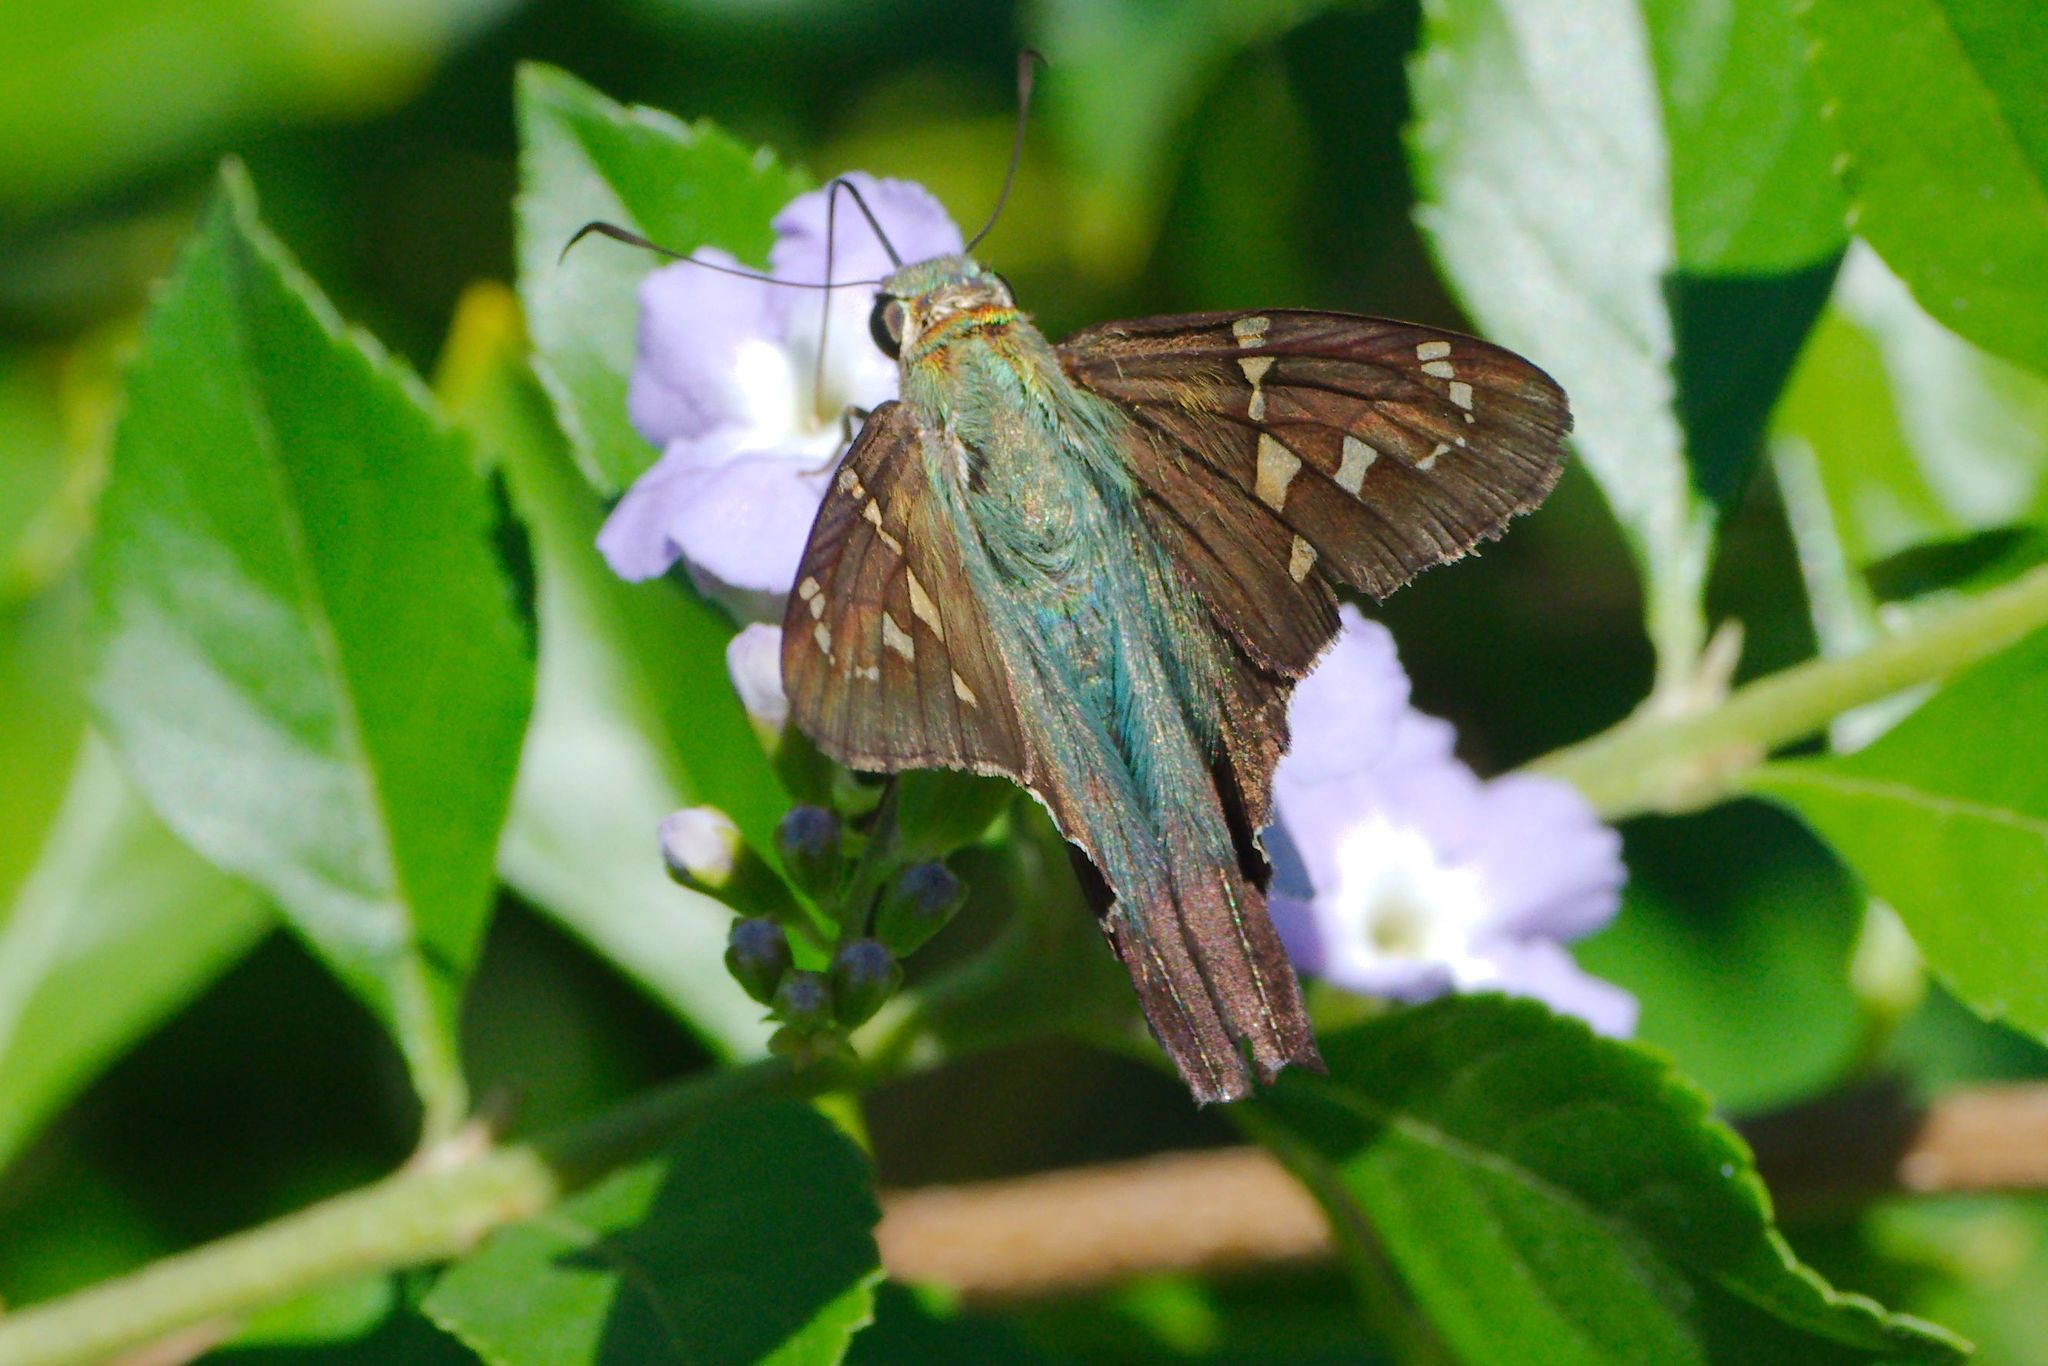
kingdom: Animalia
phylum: Arthropoda
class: Insecta
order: Lepidoptera
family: Hesperiidae
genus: Urbanus
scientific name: Urbanus proteus
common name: Long-tailed skipper
